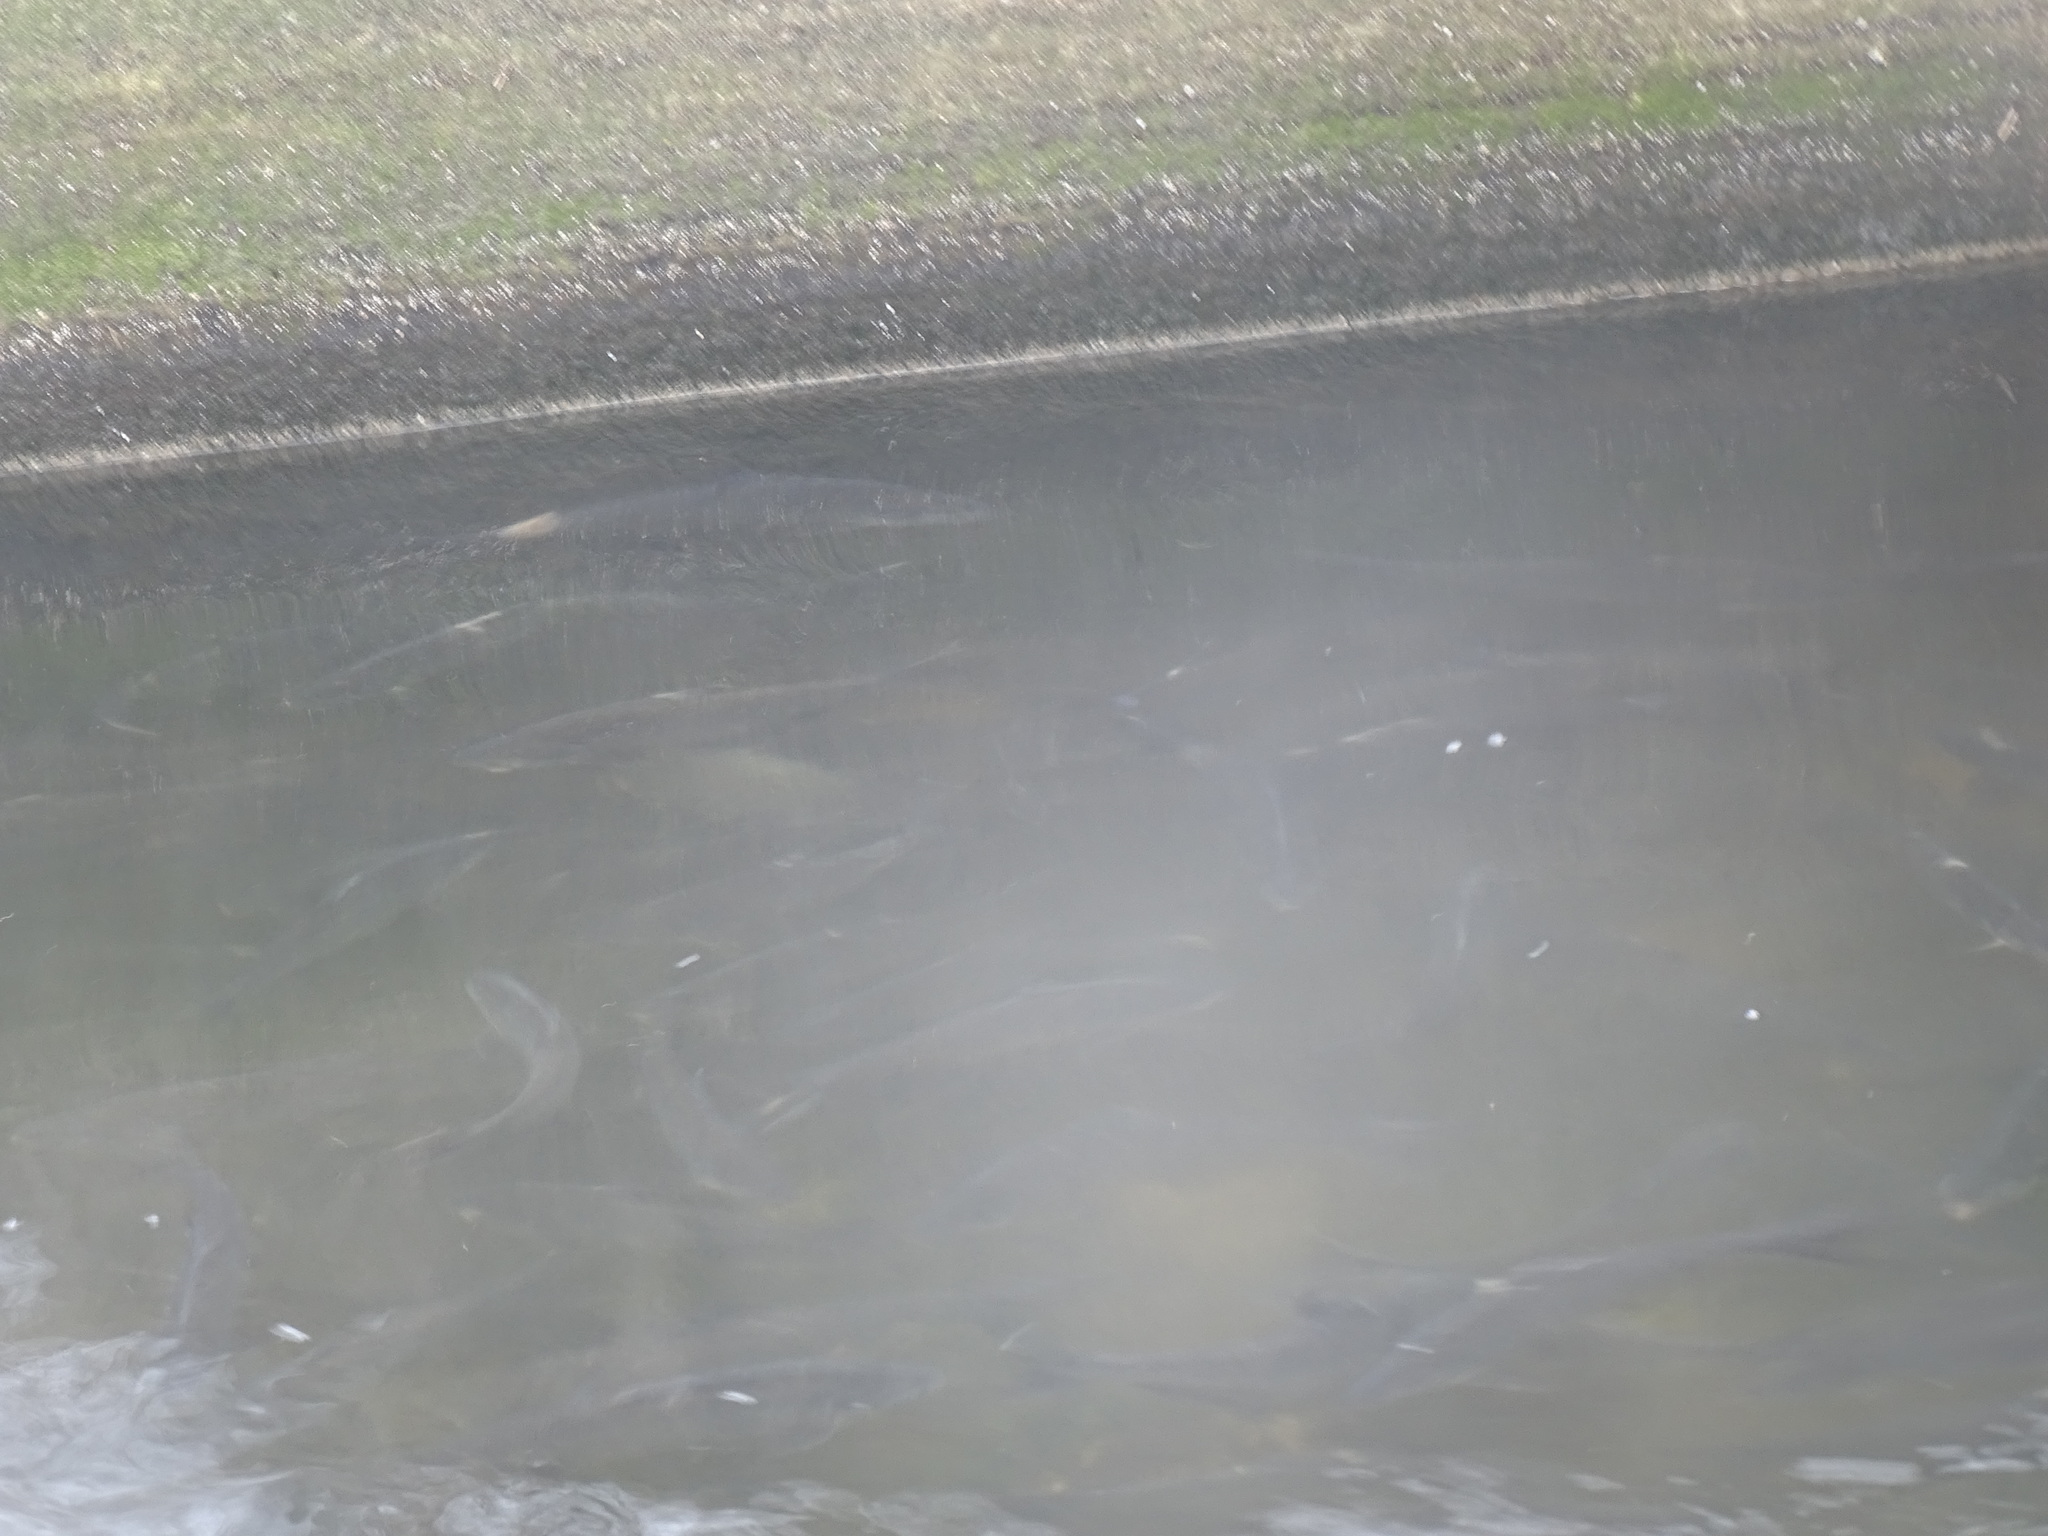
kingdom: Animalia
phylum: Chordata
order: Clupeiformes
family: Clupeidae
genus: Dorosoma
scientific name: Dorosoma cepedianum
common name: Gizzard shad
